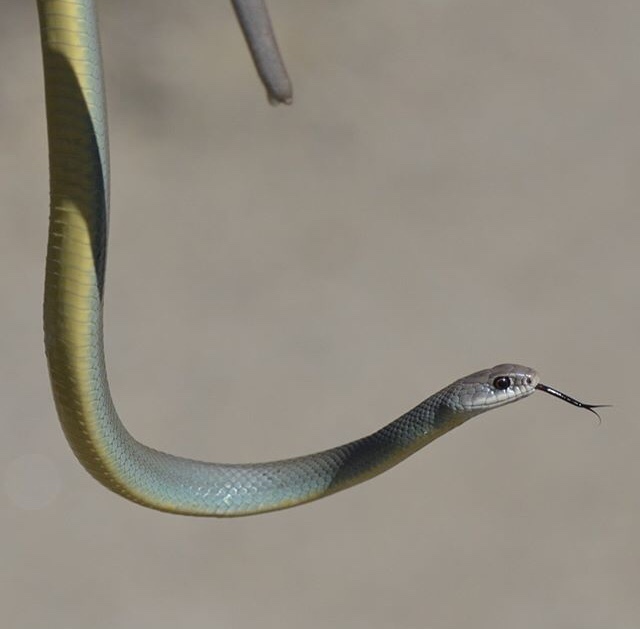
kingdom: Animalia
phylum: Chordata
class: Squamata
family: Colubridae
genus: Coluber
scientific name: Coluber constrictor
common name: Eastern racer
